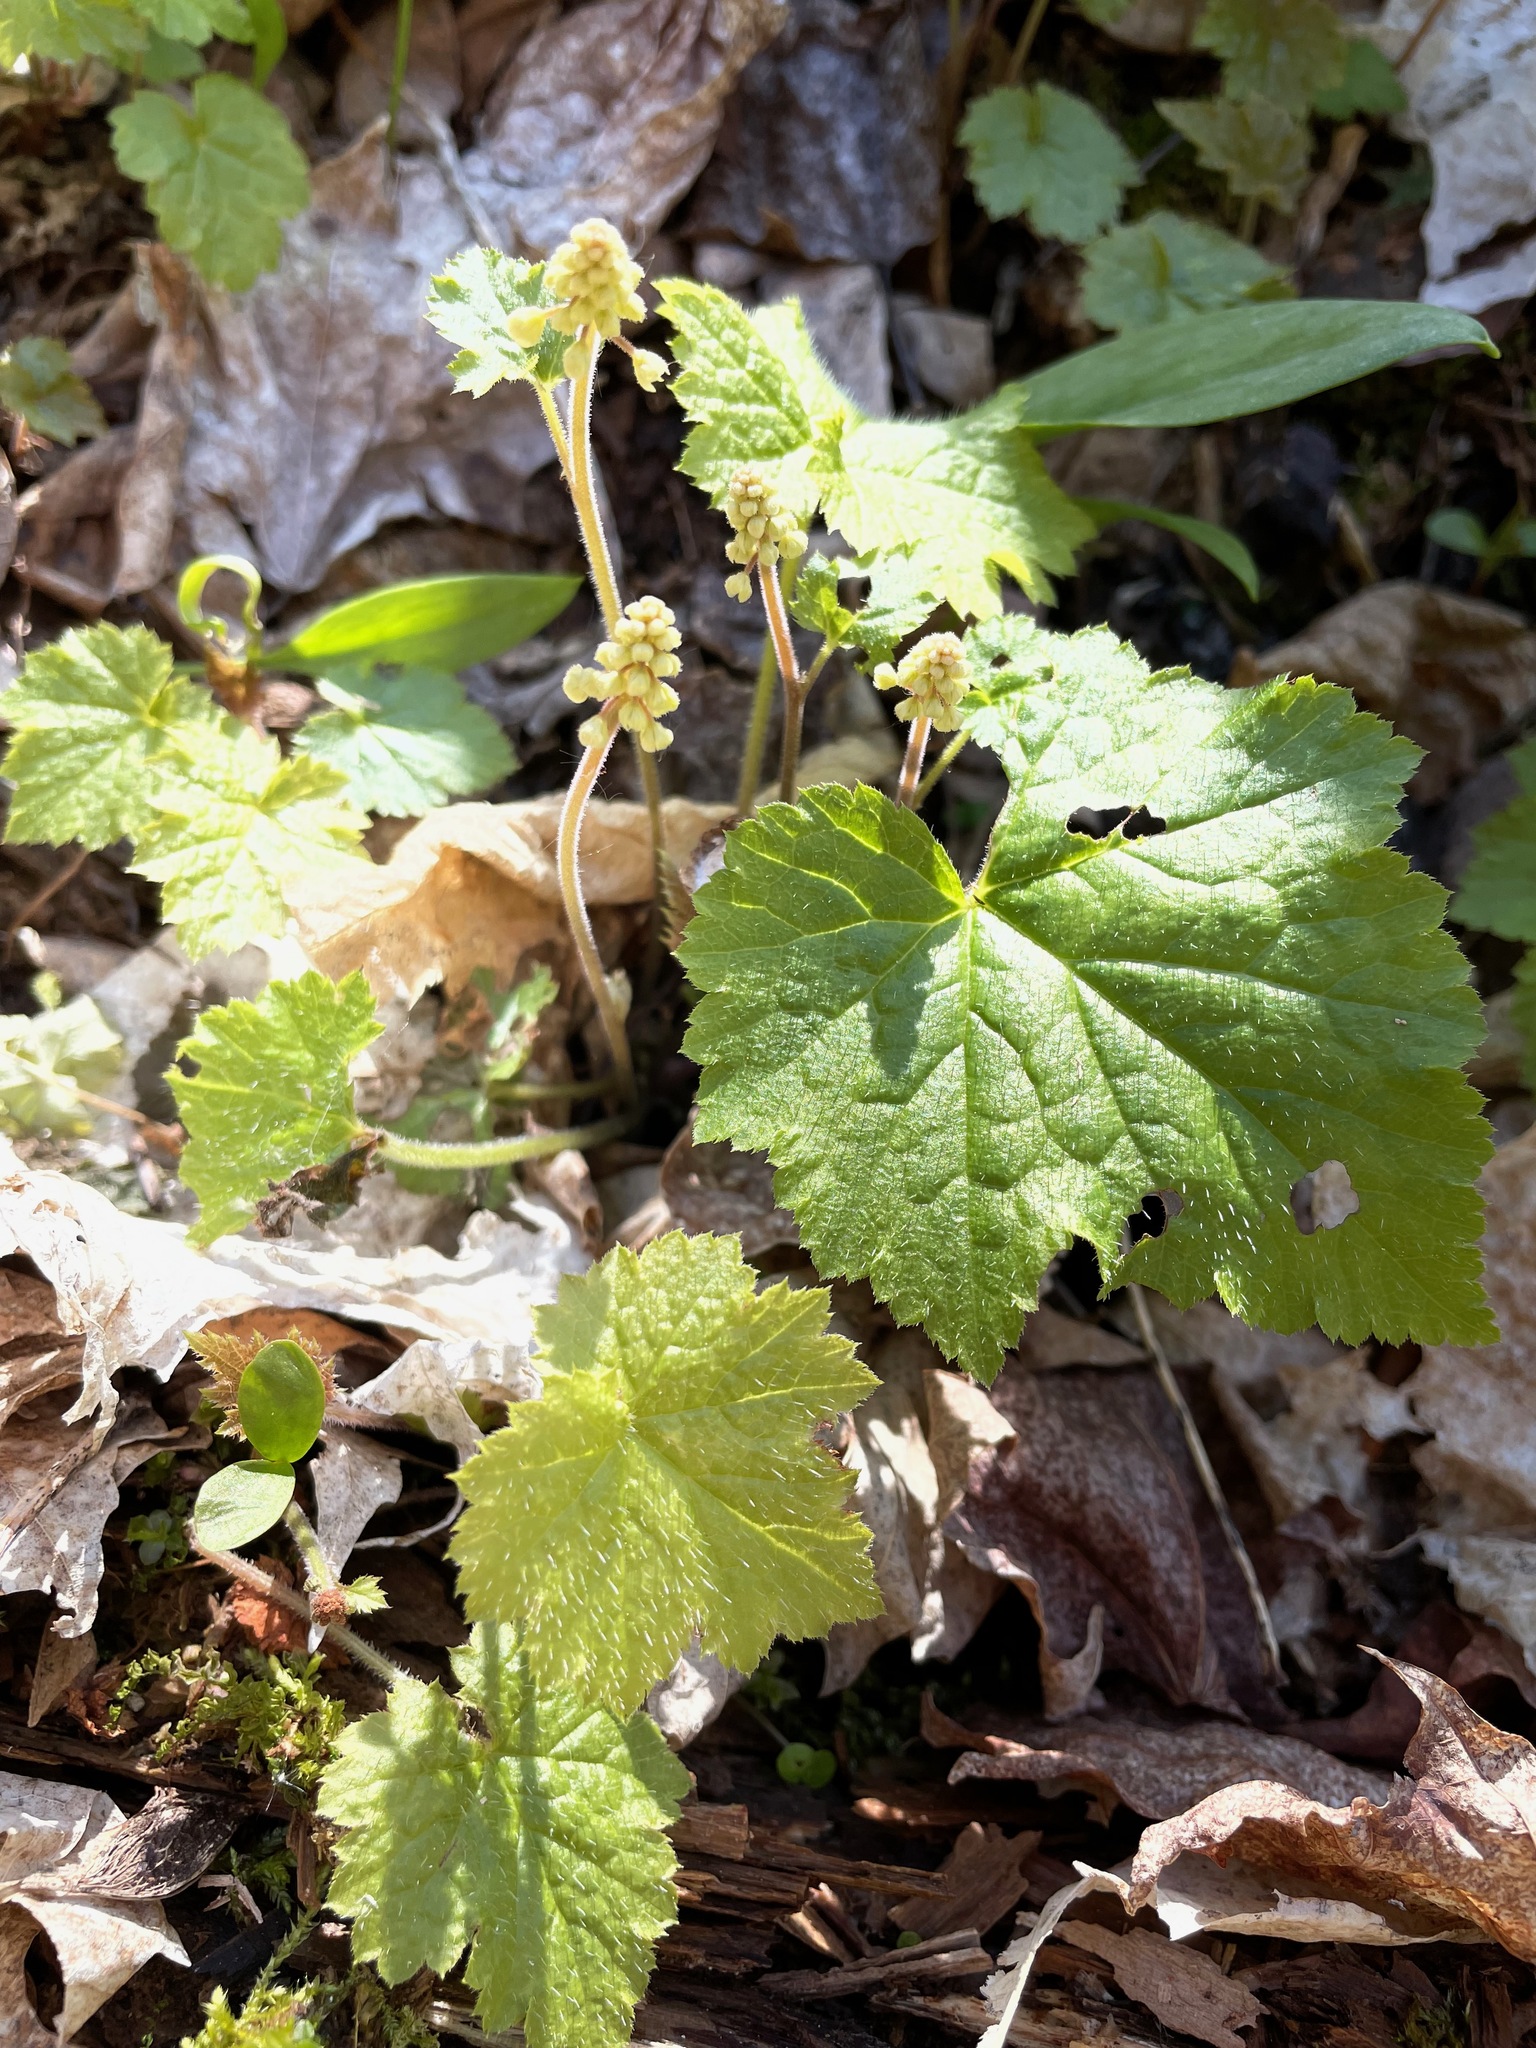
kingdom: Plantae
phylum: Tracheophyta
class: Magnoliopsida
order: Saxifragales
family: Saxifragaceae
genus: Tiarella
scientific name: Tiarella stolonifera
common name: Stoloniferous foamflower
